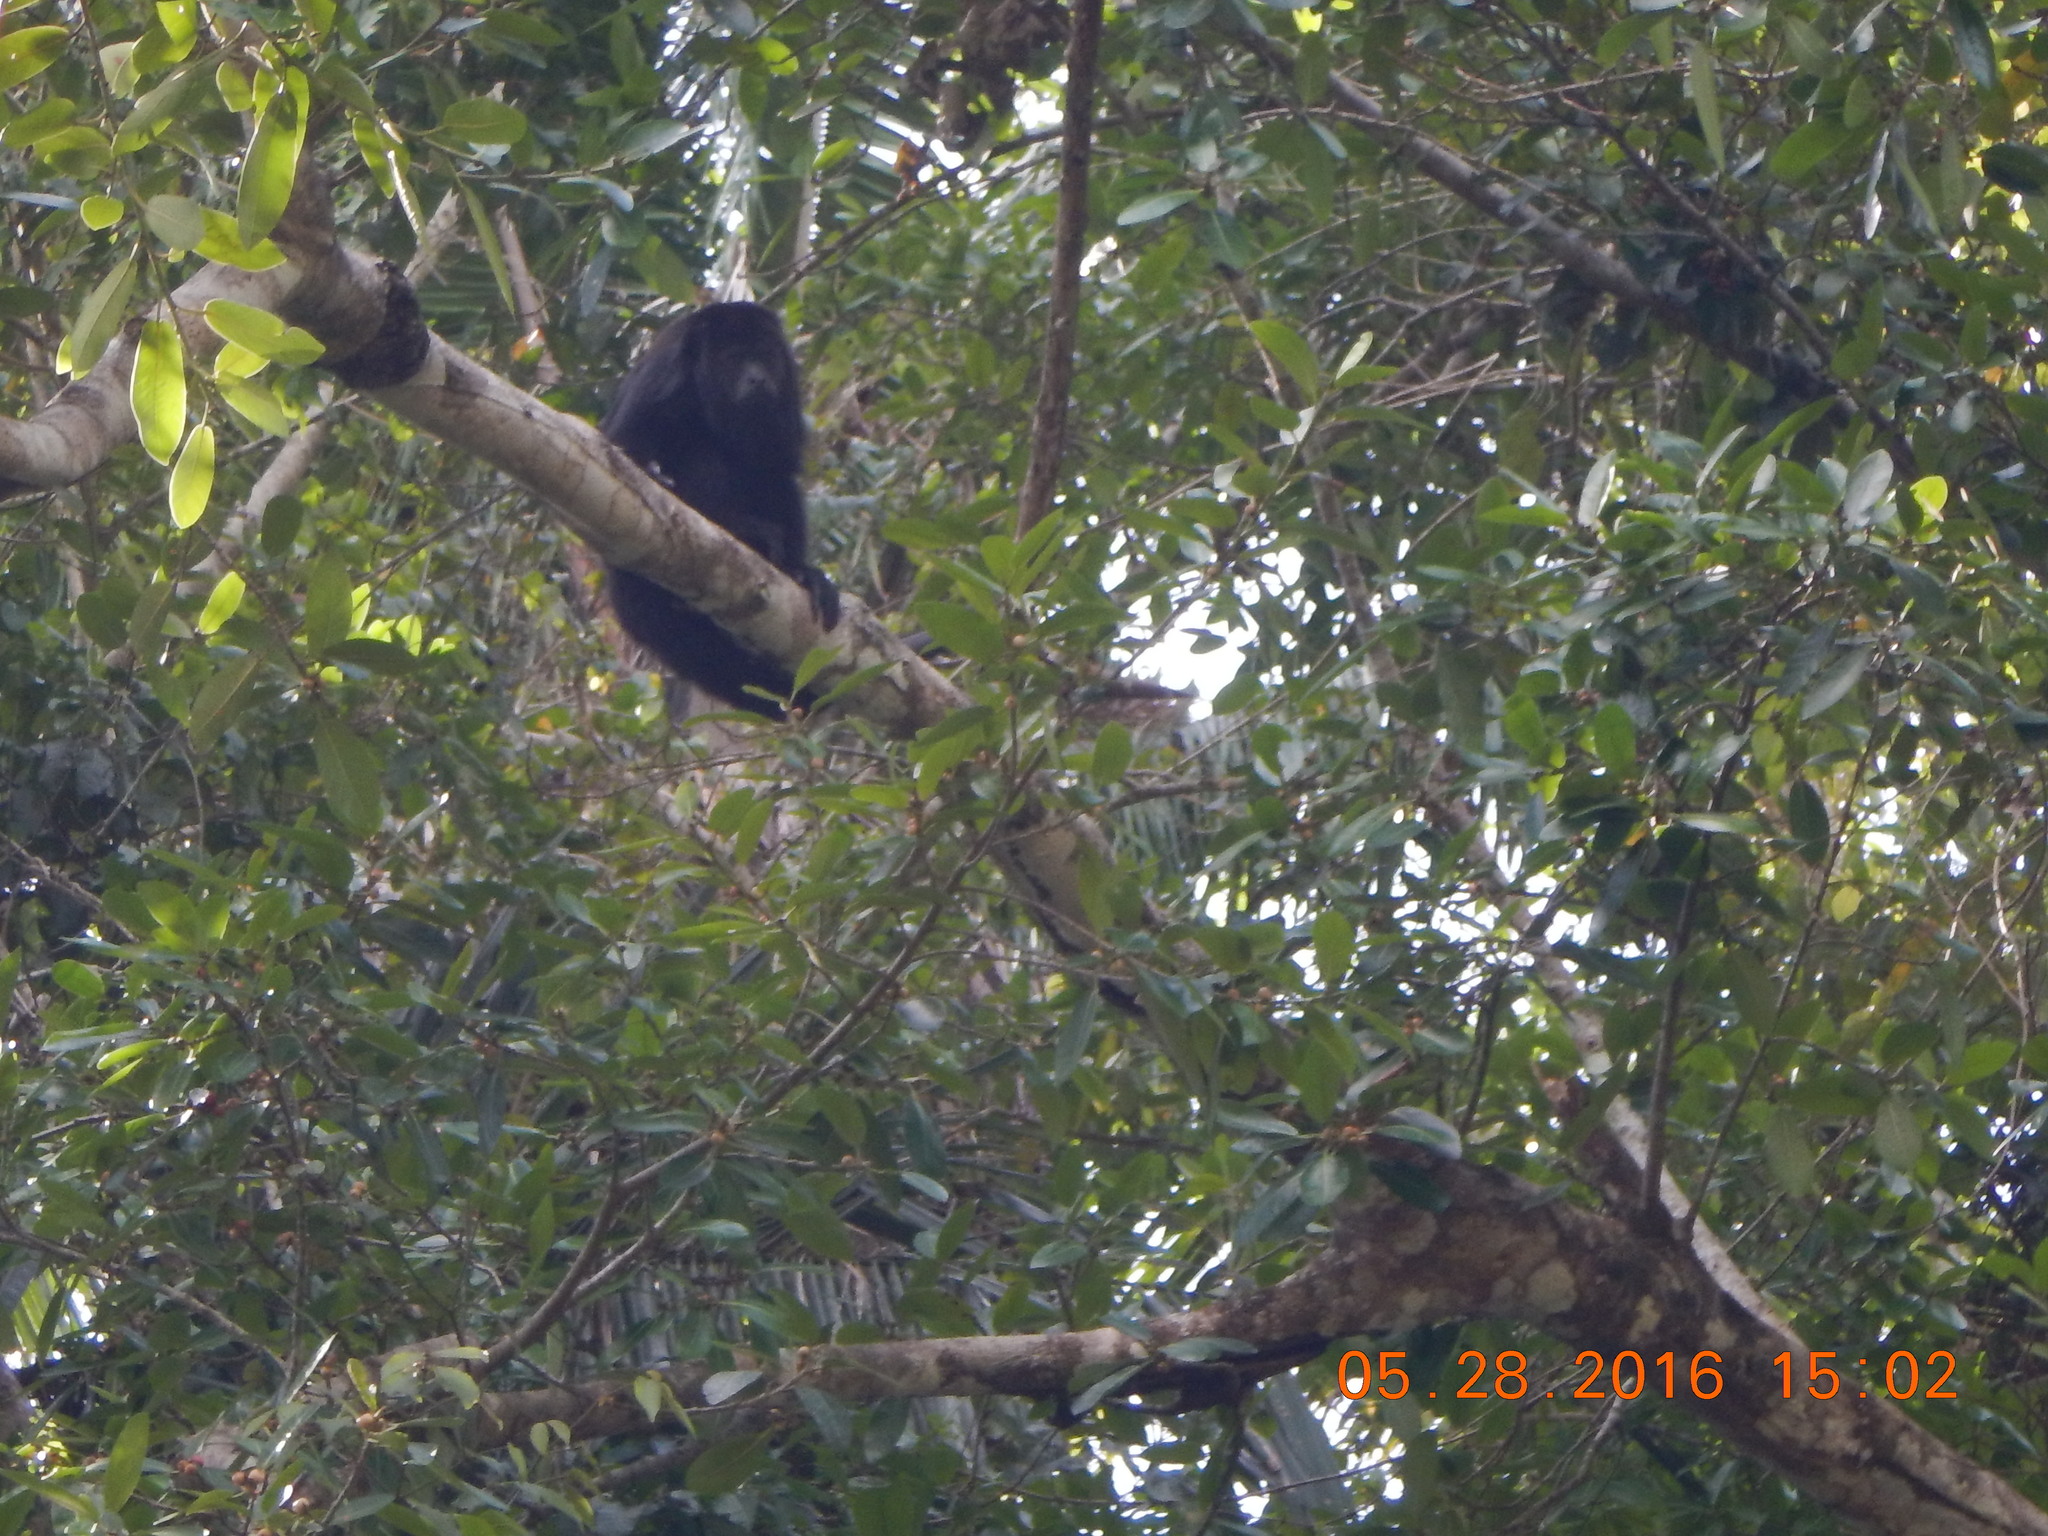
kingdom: Animalia
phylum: Chordata
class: Mammalia
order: Primates
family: Atelidae
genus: Alouatta
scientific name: Alouatta pigra
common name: Guatemalan black howler
